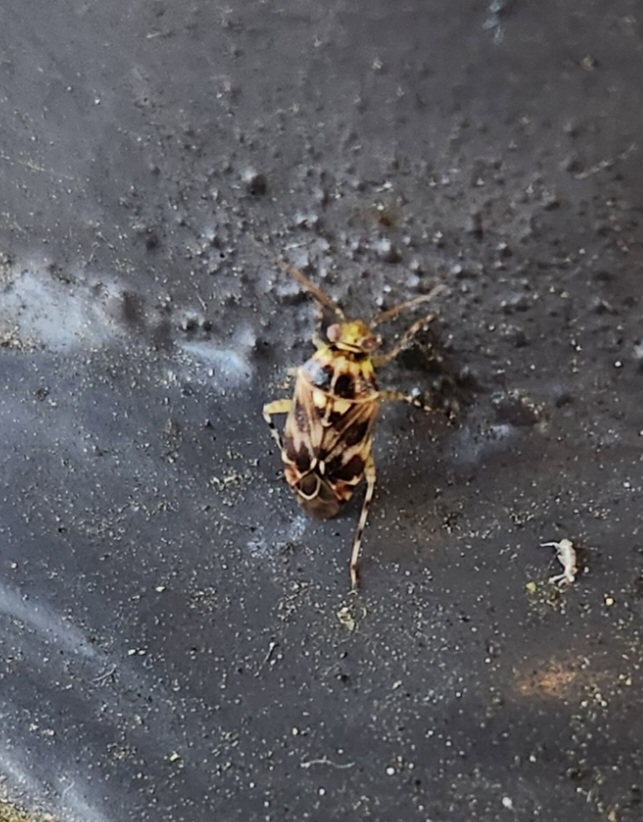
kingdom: Animalia
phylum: Arthropoda
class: Insecta
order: Hemiptera
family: Miridae
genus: Tropidosteptes
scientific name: Tropidosteptes quercicola
